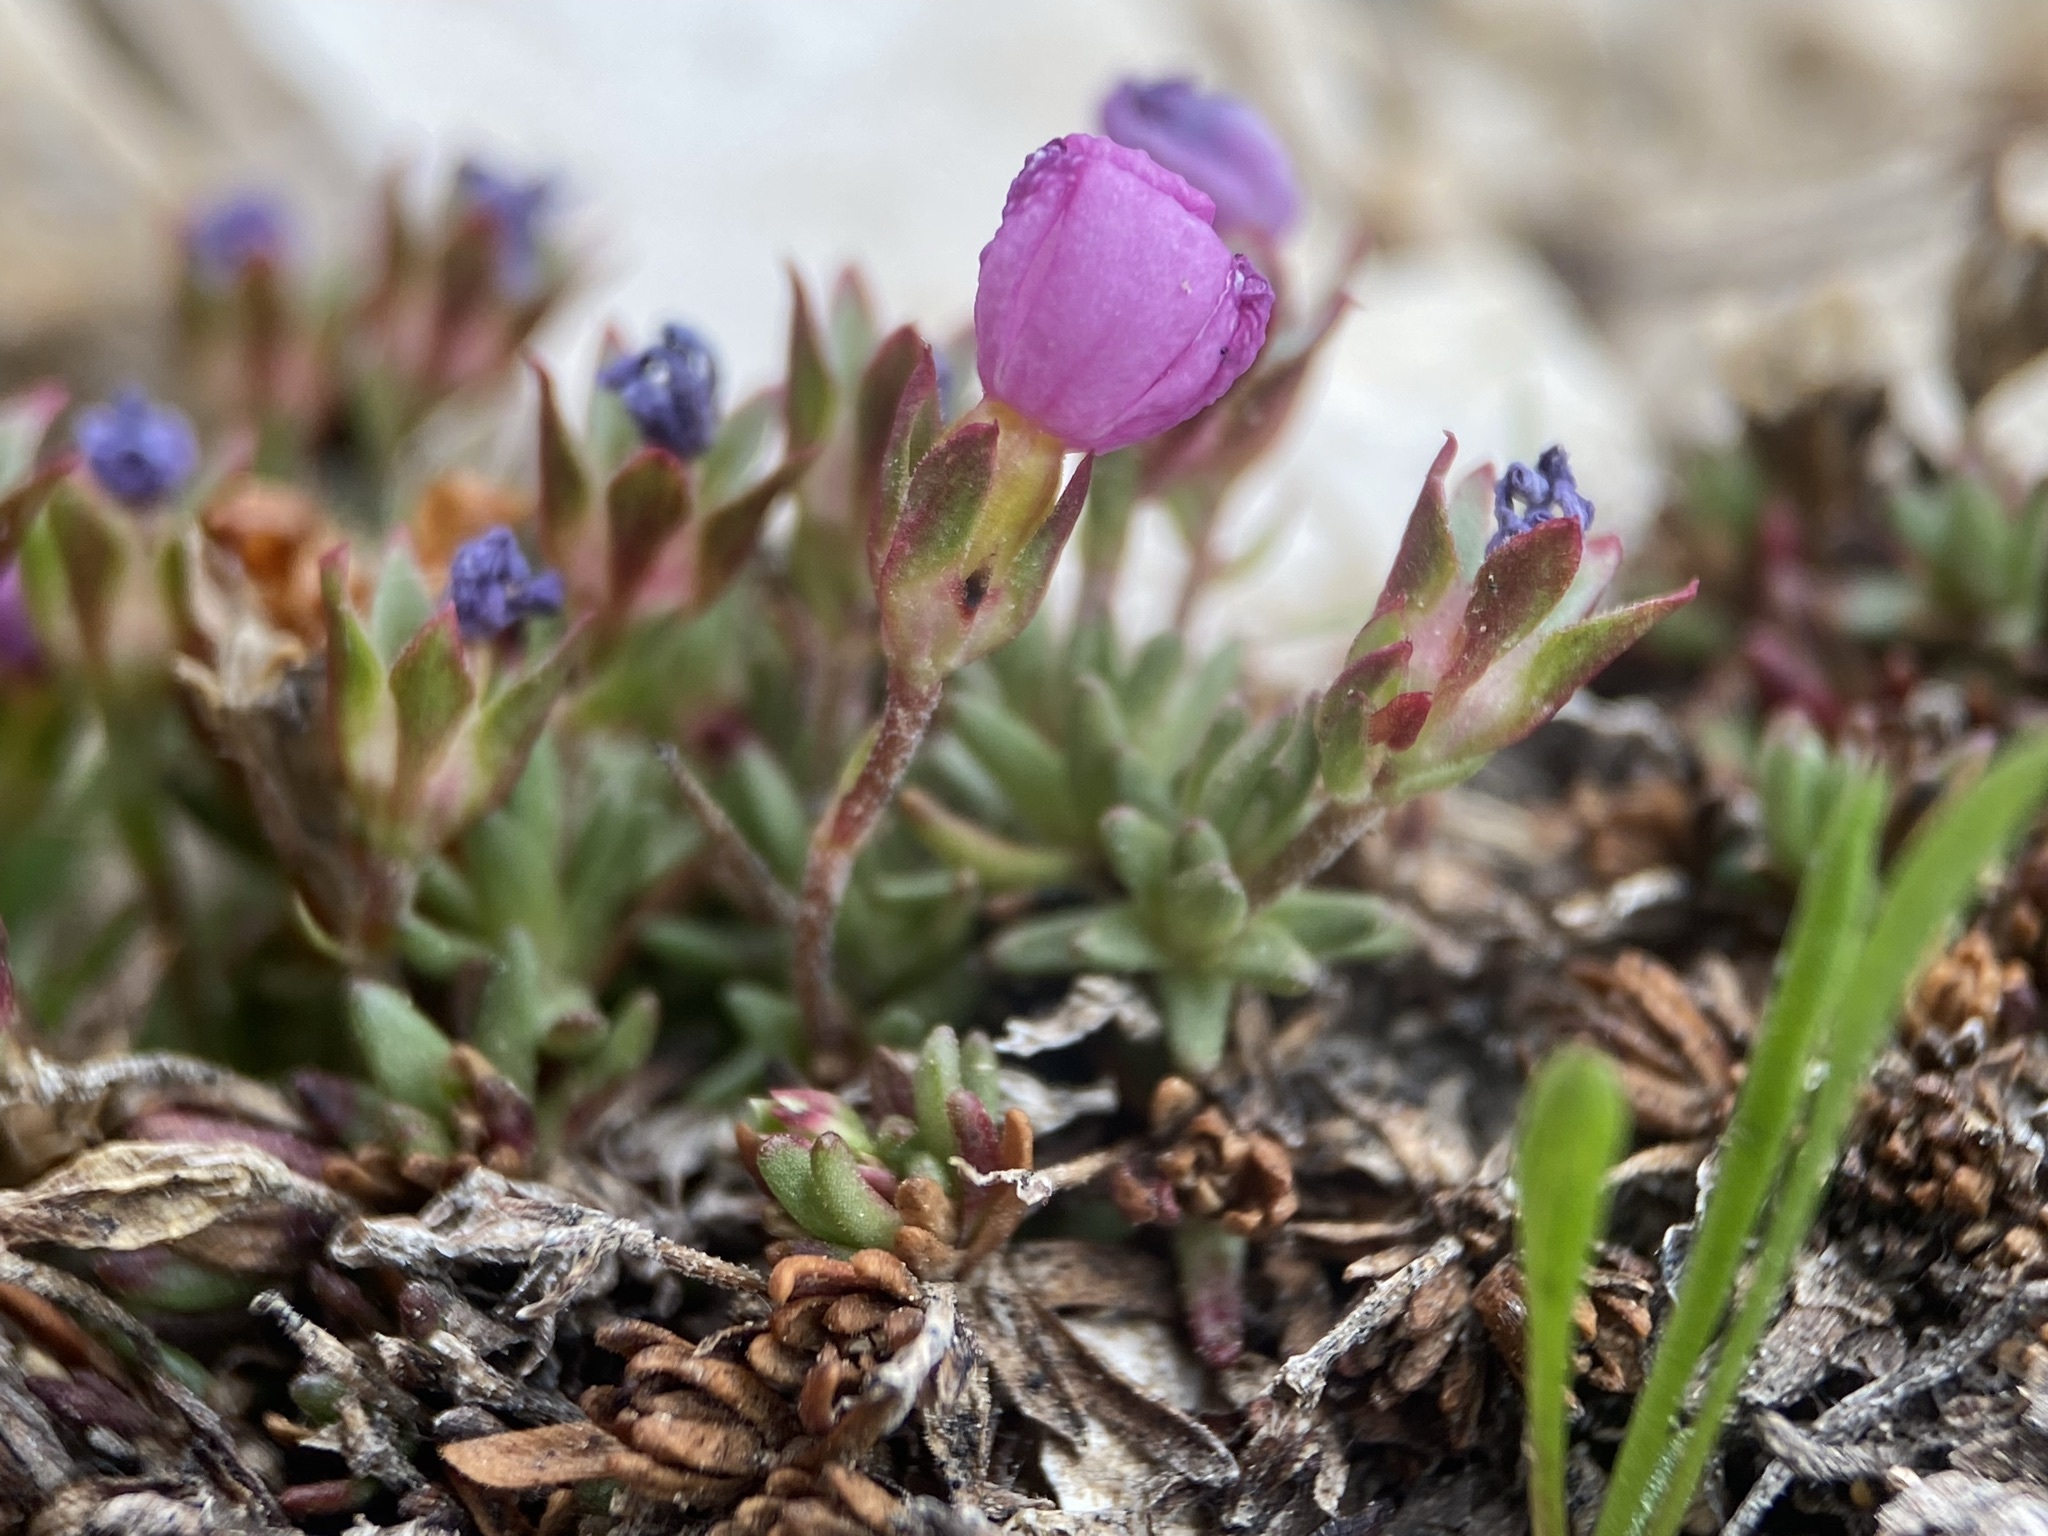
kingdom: Plantae
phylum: Tracheophyta
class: Magnoliopsida
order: Ericales
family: Primulaceae
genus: Androsace
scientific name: Androsace montana
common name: Rocky mountain dwarf-primrose
